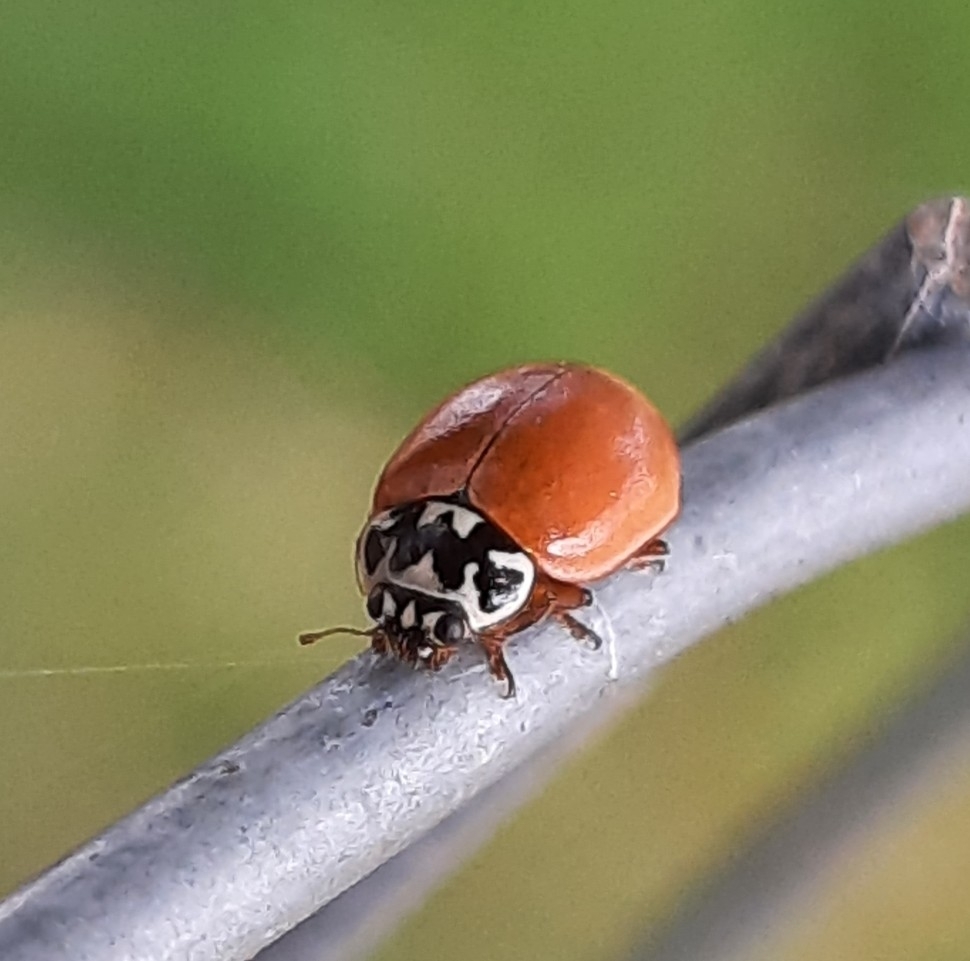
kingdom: Animalia
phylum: Arthropoda
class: Insecta
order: Coleoptera
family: Coccinellidae
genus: Mulsantina
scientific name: Mulsantina picta
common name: Painted ladybird
